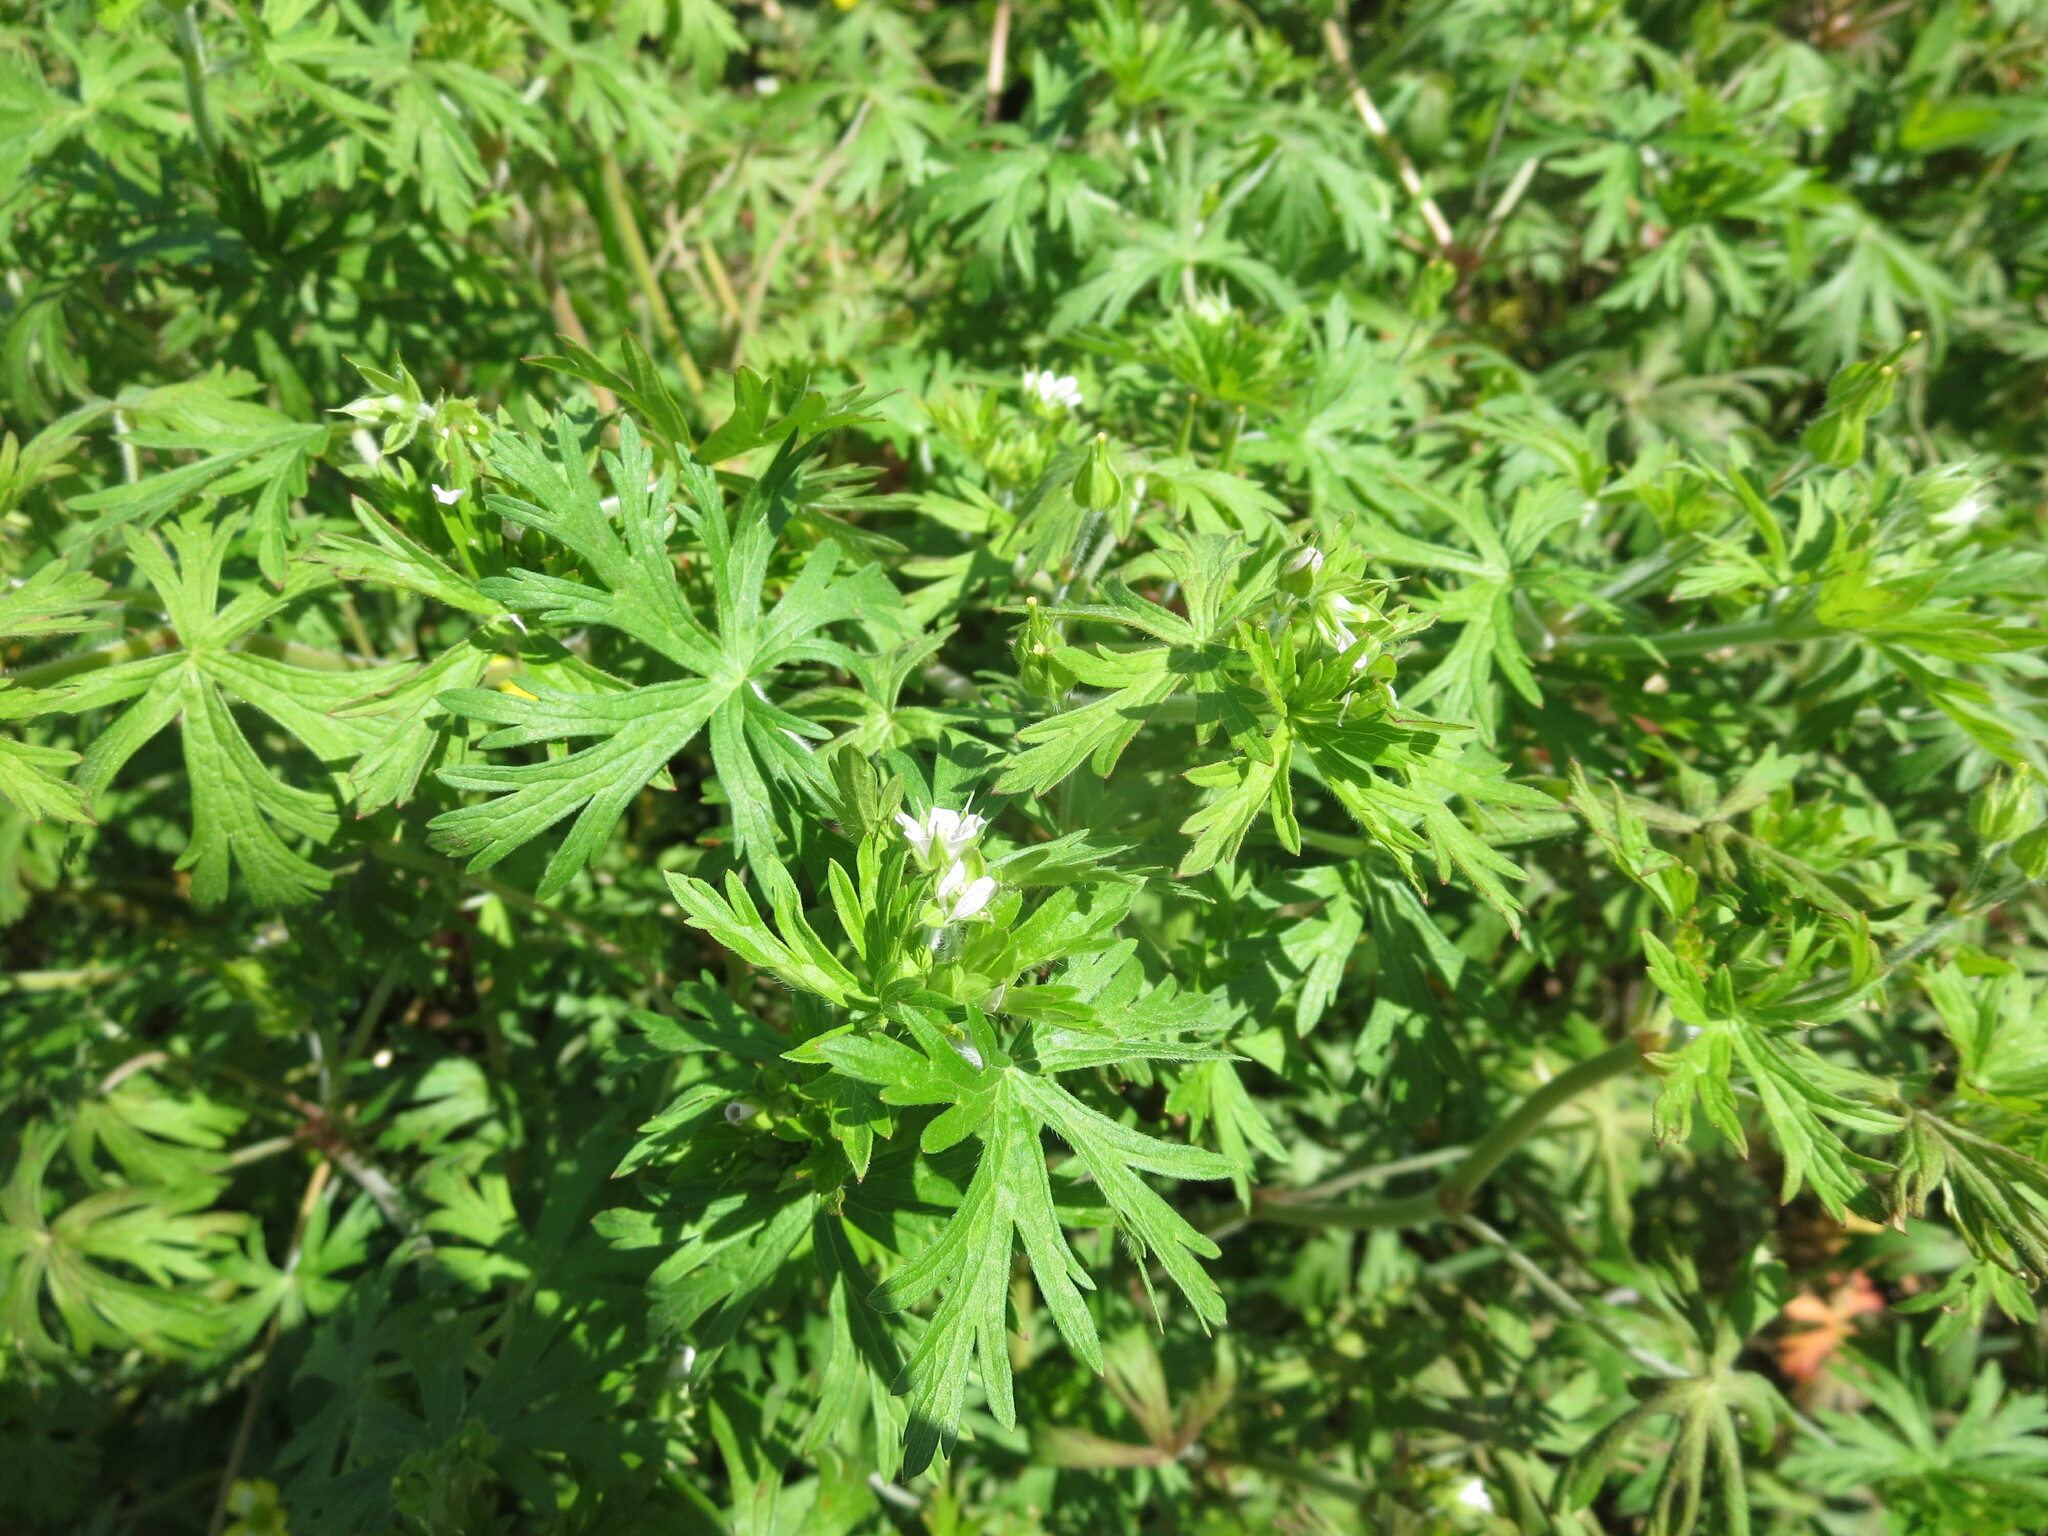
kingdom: Plantae
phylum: Tracheophyta
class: Magnoliopsida
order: Geraniales
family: Geraniaceae
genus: Geranium
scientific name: Geranium carolinianum
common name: Carolina crane's-bill
